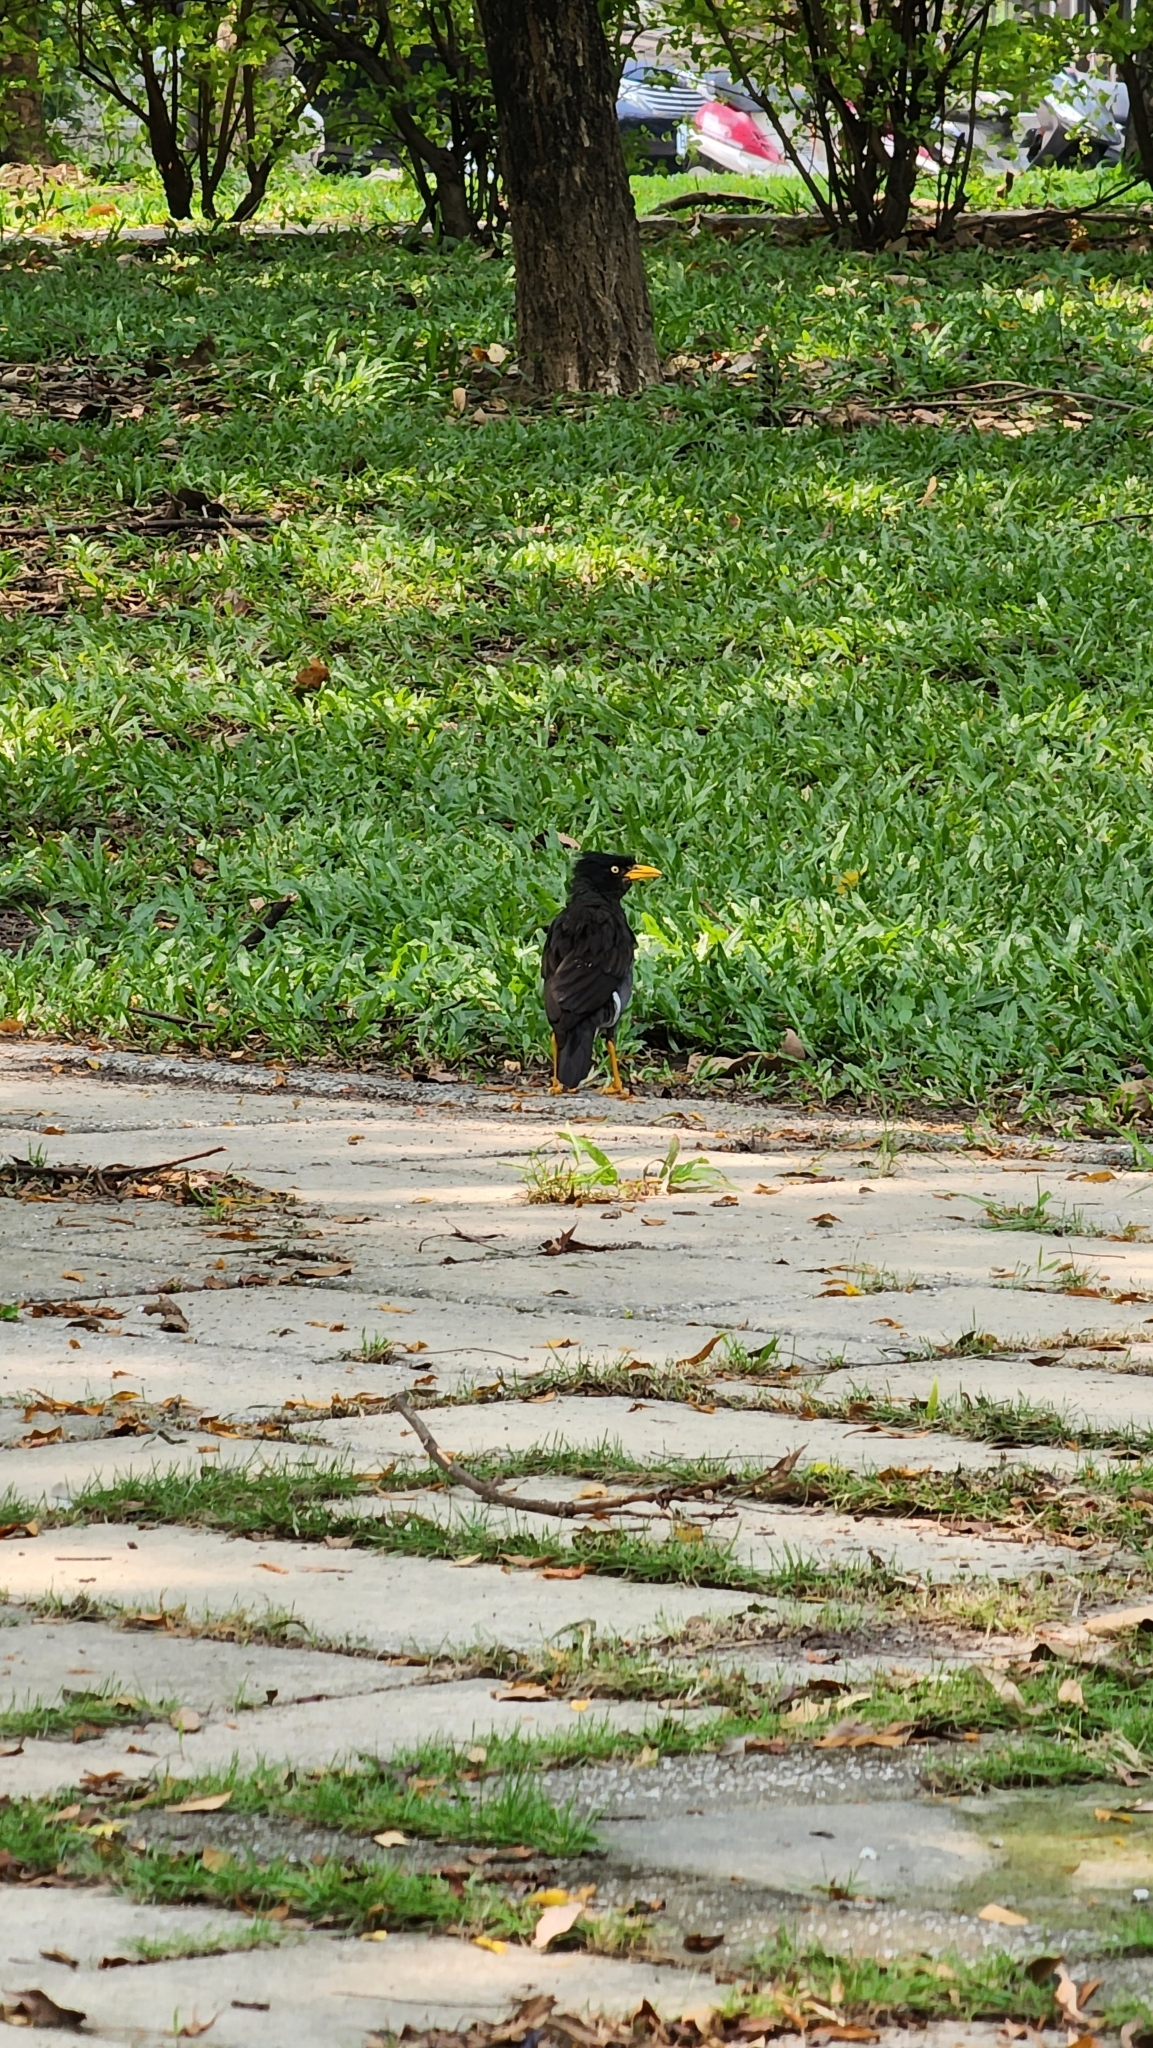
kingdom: Animalia
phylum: Chordata
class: Aves
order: Passeriformes
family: Sturnidae
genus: Acridotheres
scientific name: Acridotheres javanicus
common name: Javan myna
